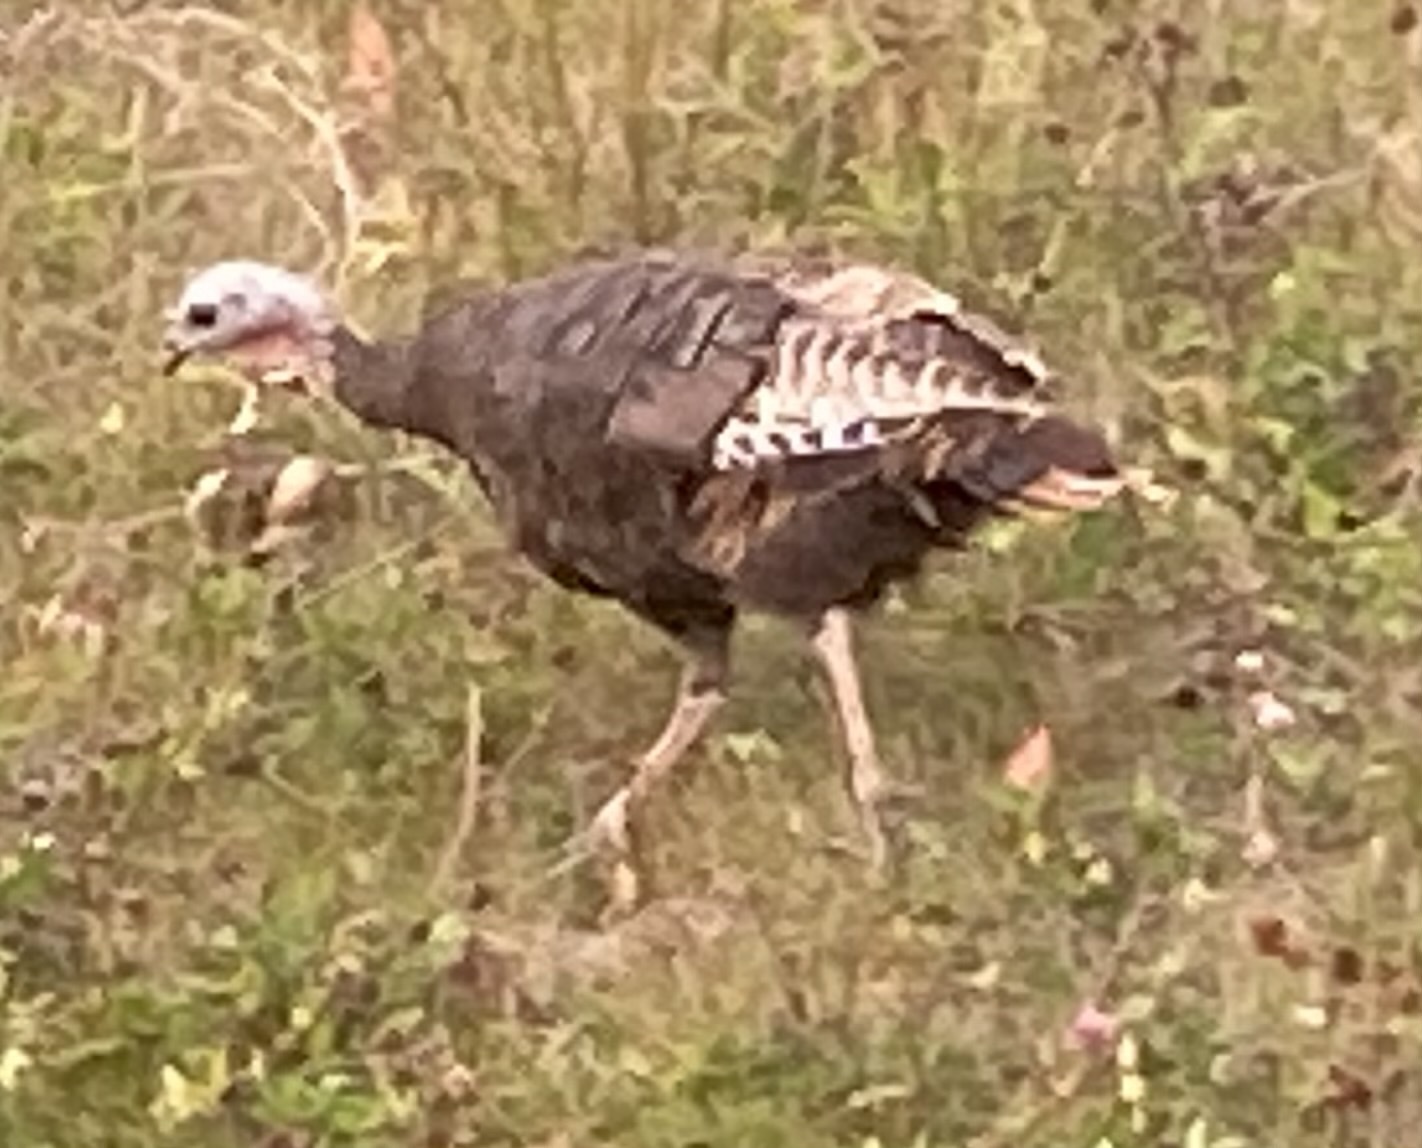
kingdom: Animalia
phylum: Chordata
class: Aves
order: Galliformes
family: Phasianidae
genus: Meleagris
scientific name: Meleagris gallopavo
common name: Wild turkey
